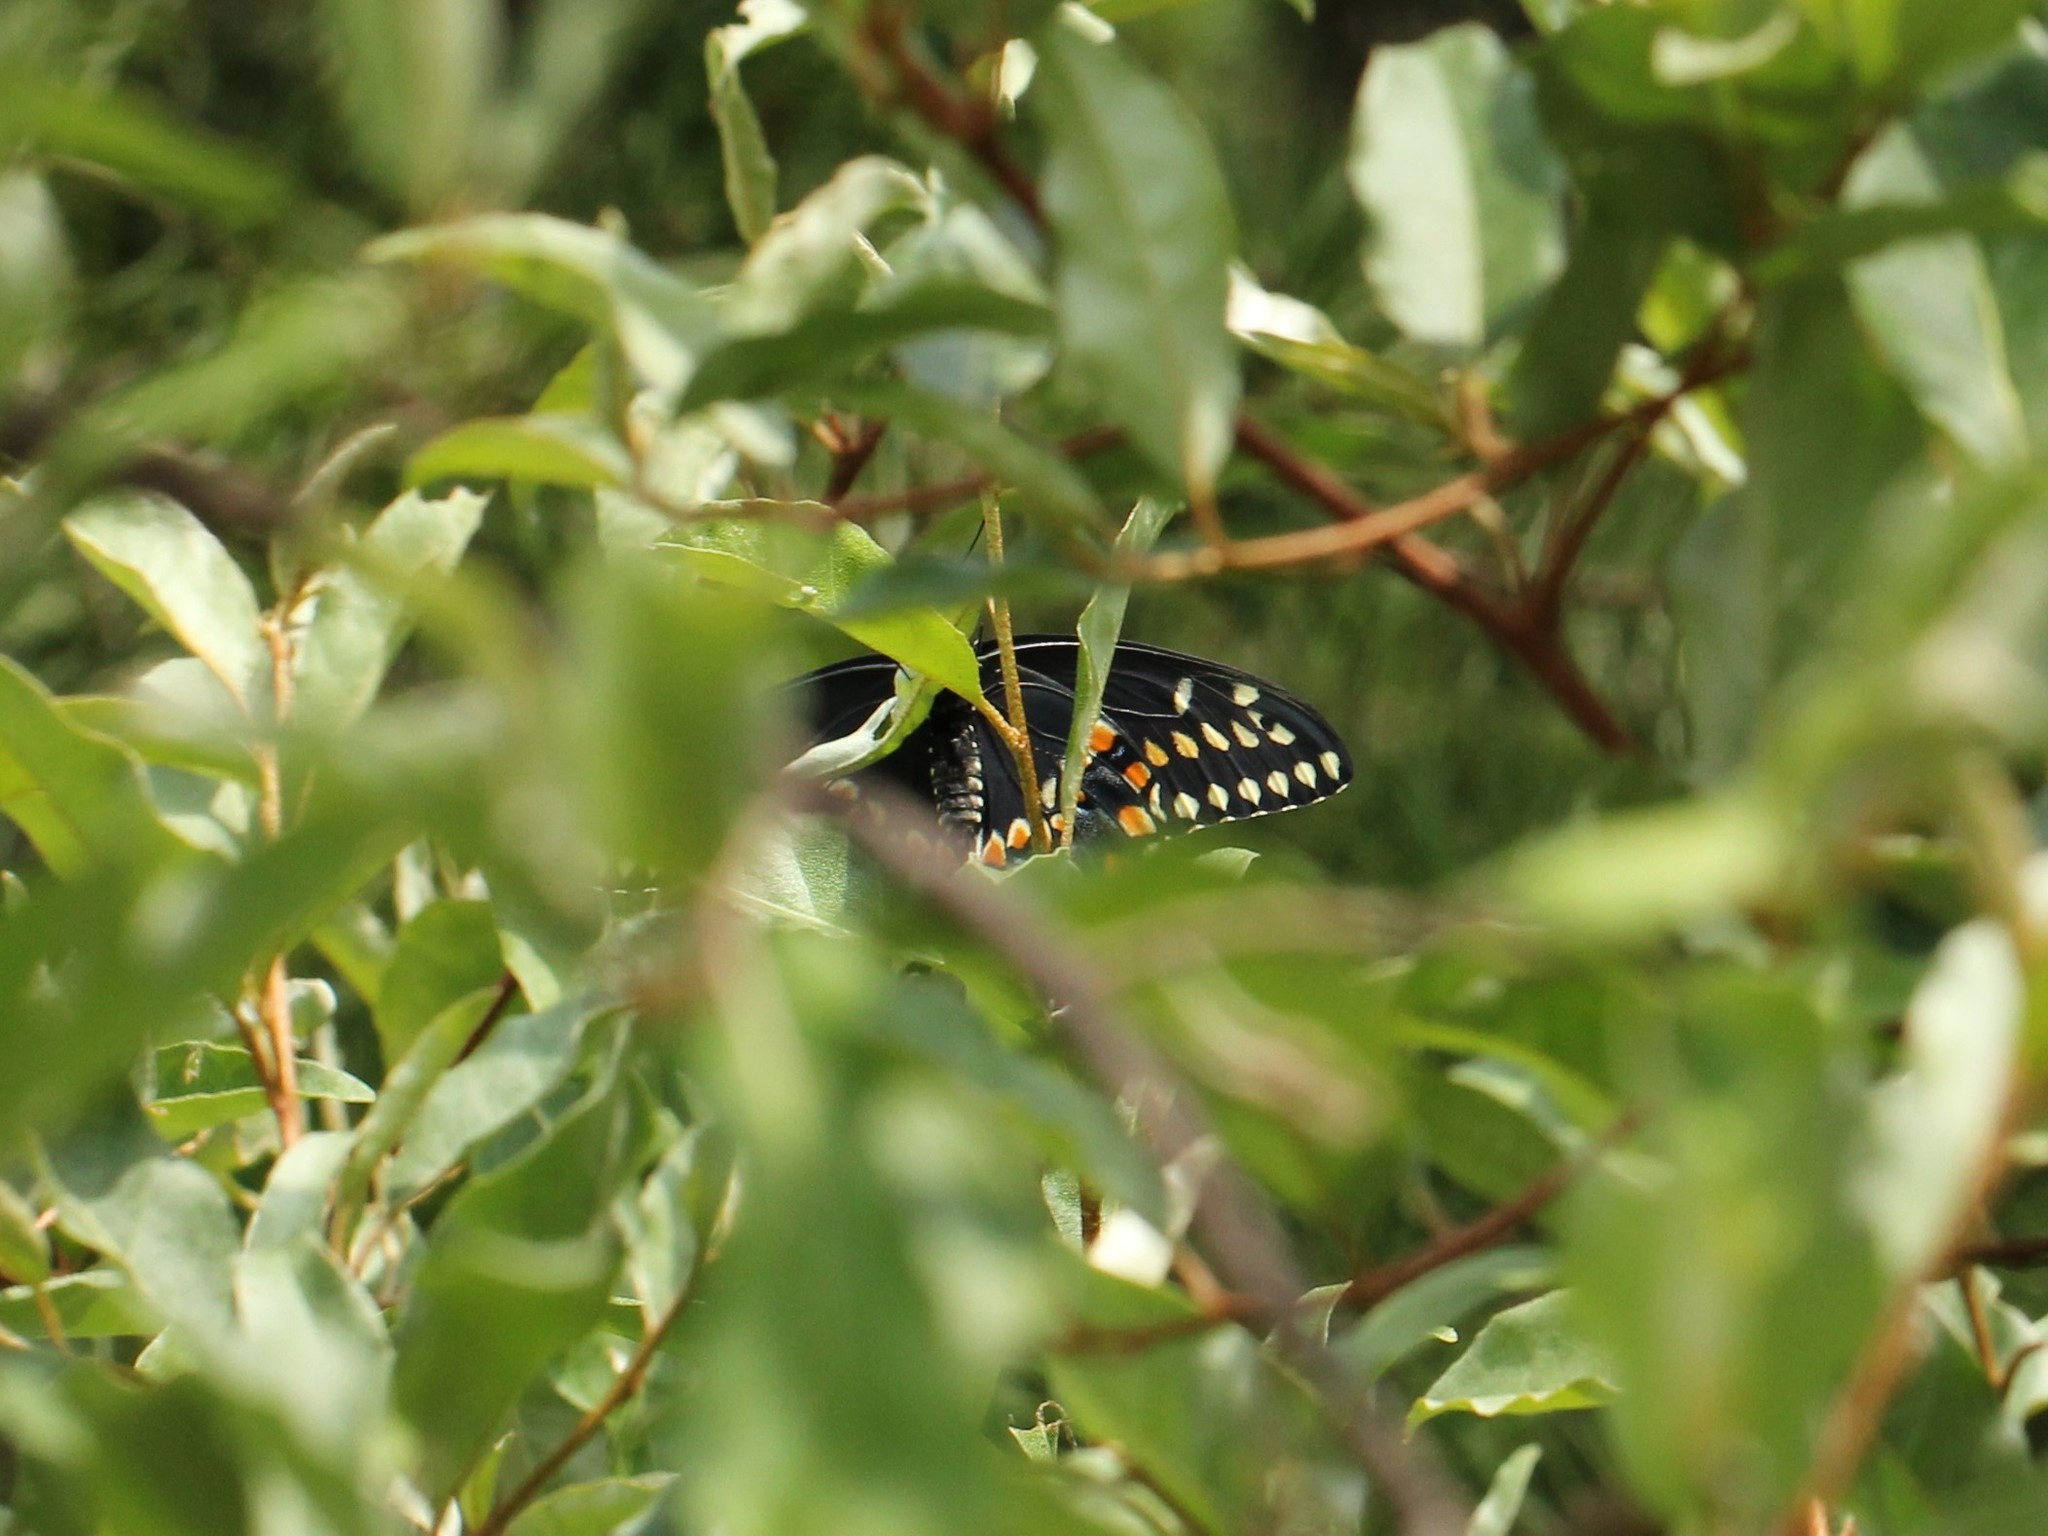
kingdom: Animalia
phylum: Arthropoda
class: Insecta
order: Lepidoptera
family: Papilionidae
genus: Papilio
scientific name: Papilio polyxenes
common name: Black swallowtail
